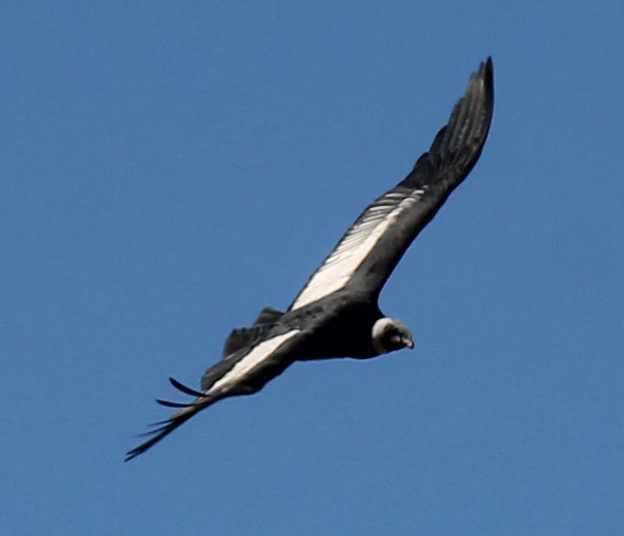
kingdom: Animalia
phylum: Chordata
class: Aves
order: Accipitriformes
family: Cathartidae
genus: Vultur
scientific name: Vultur gryphus
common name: Andean condor
